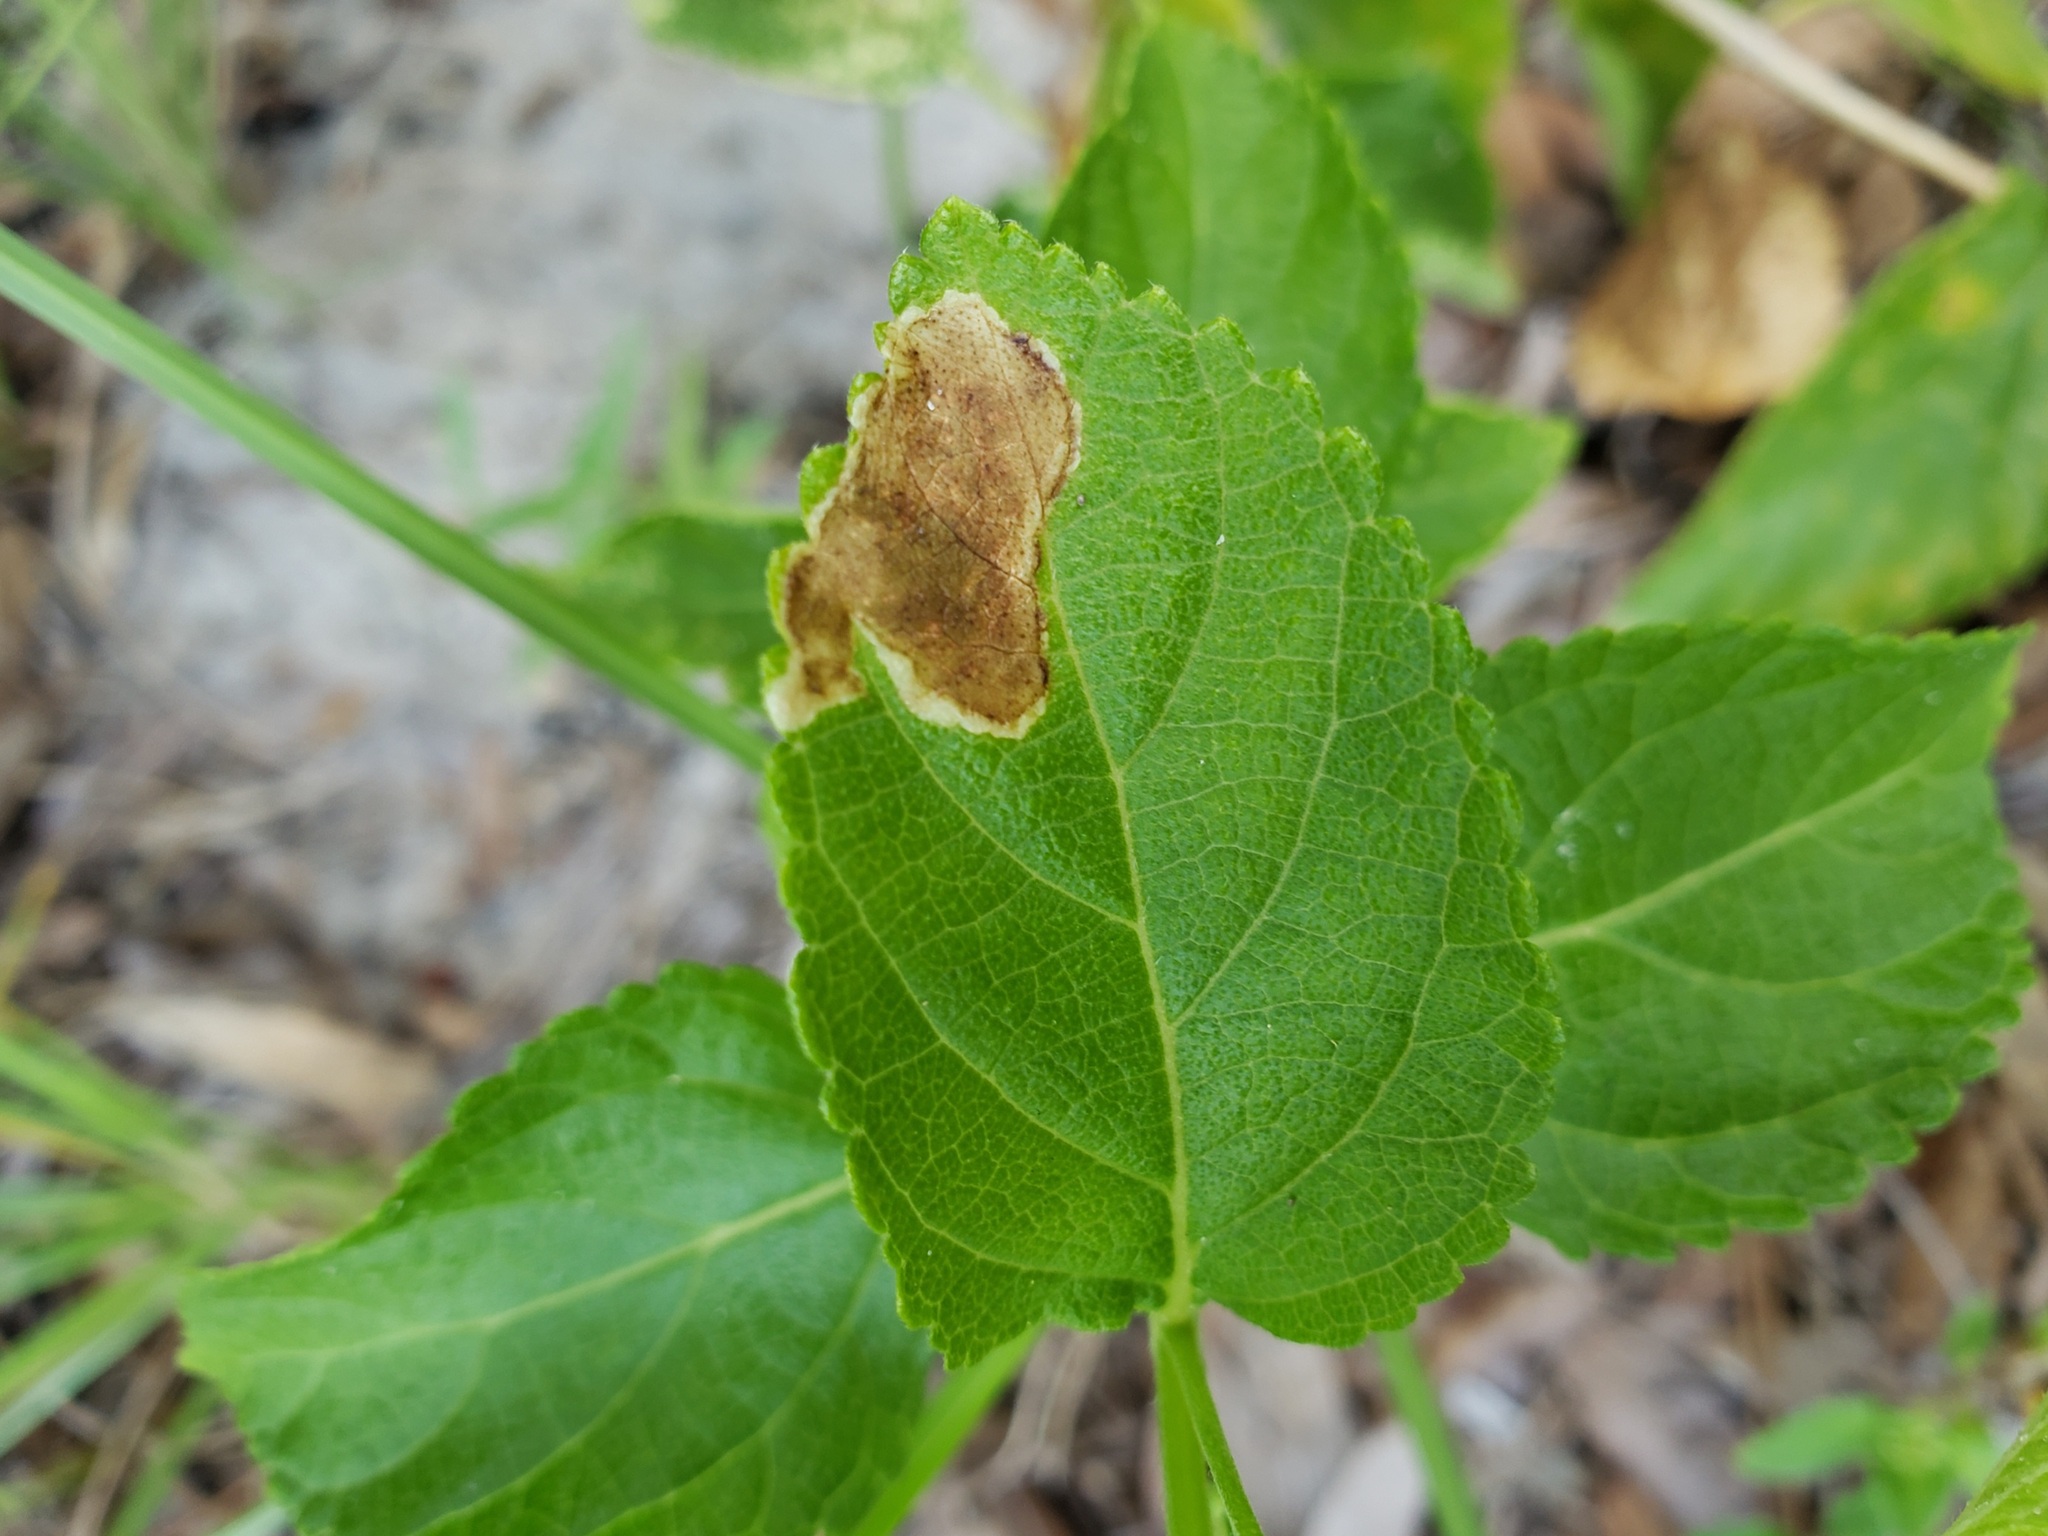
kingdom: Animalia
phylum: Arthropoda
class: Insecta
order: Diptera
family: Agromyzidae
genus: Calycomyza
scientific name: Calycomyza lantanae
